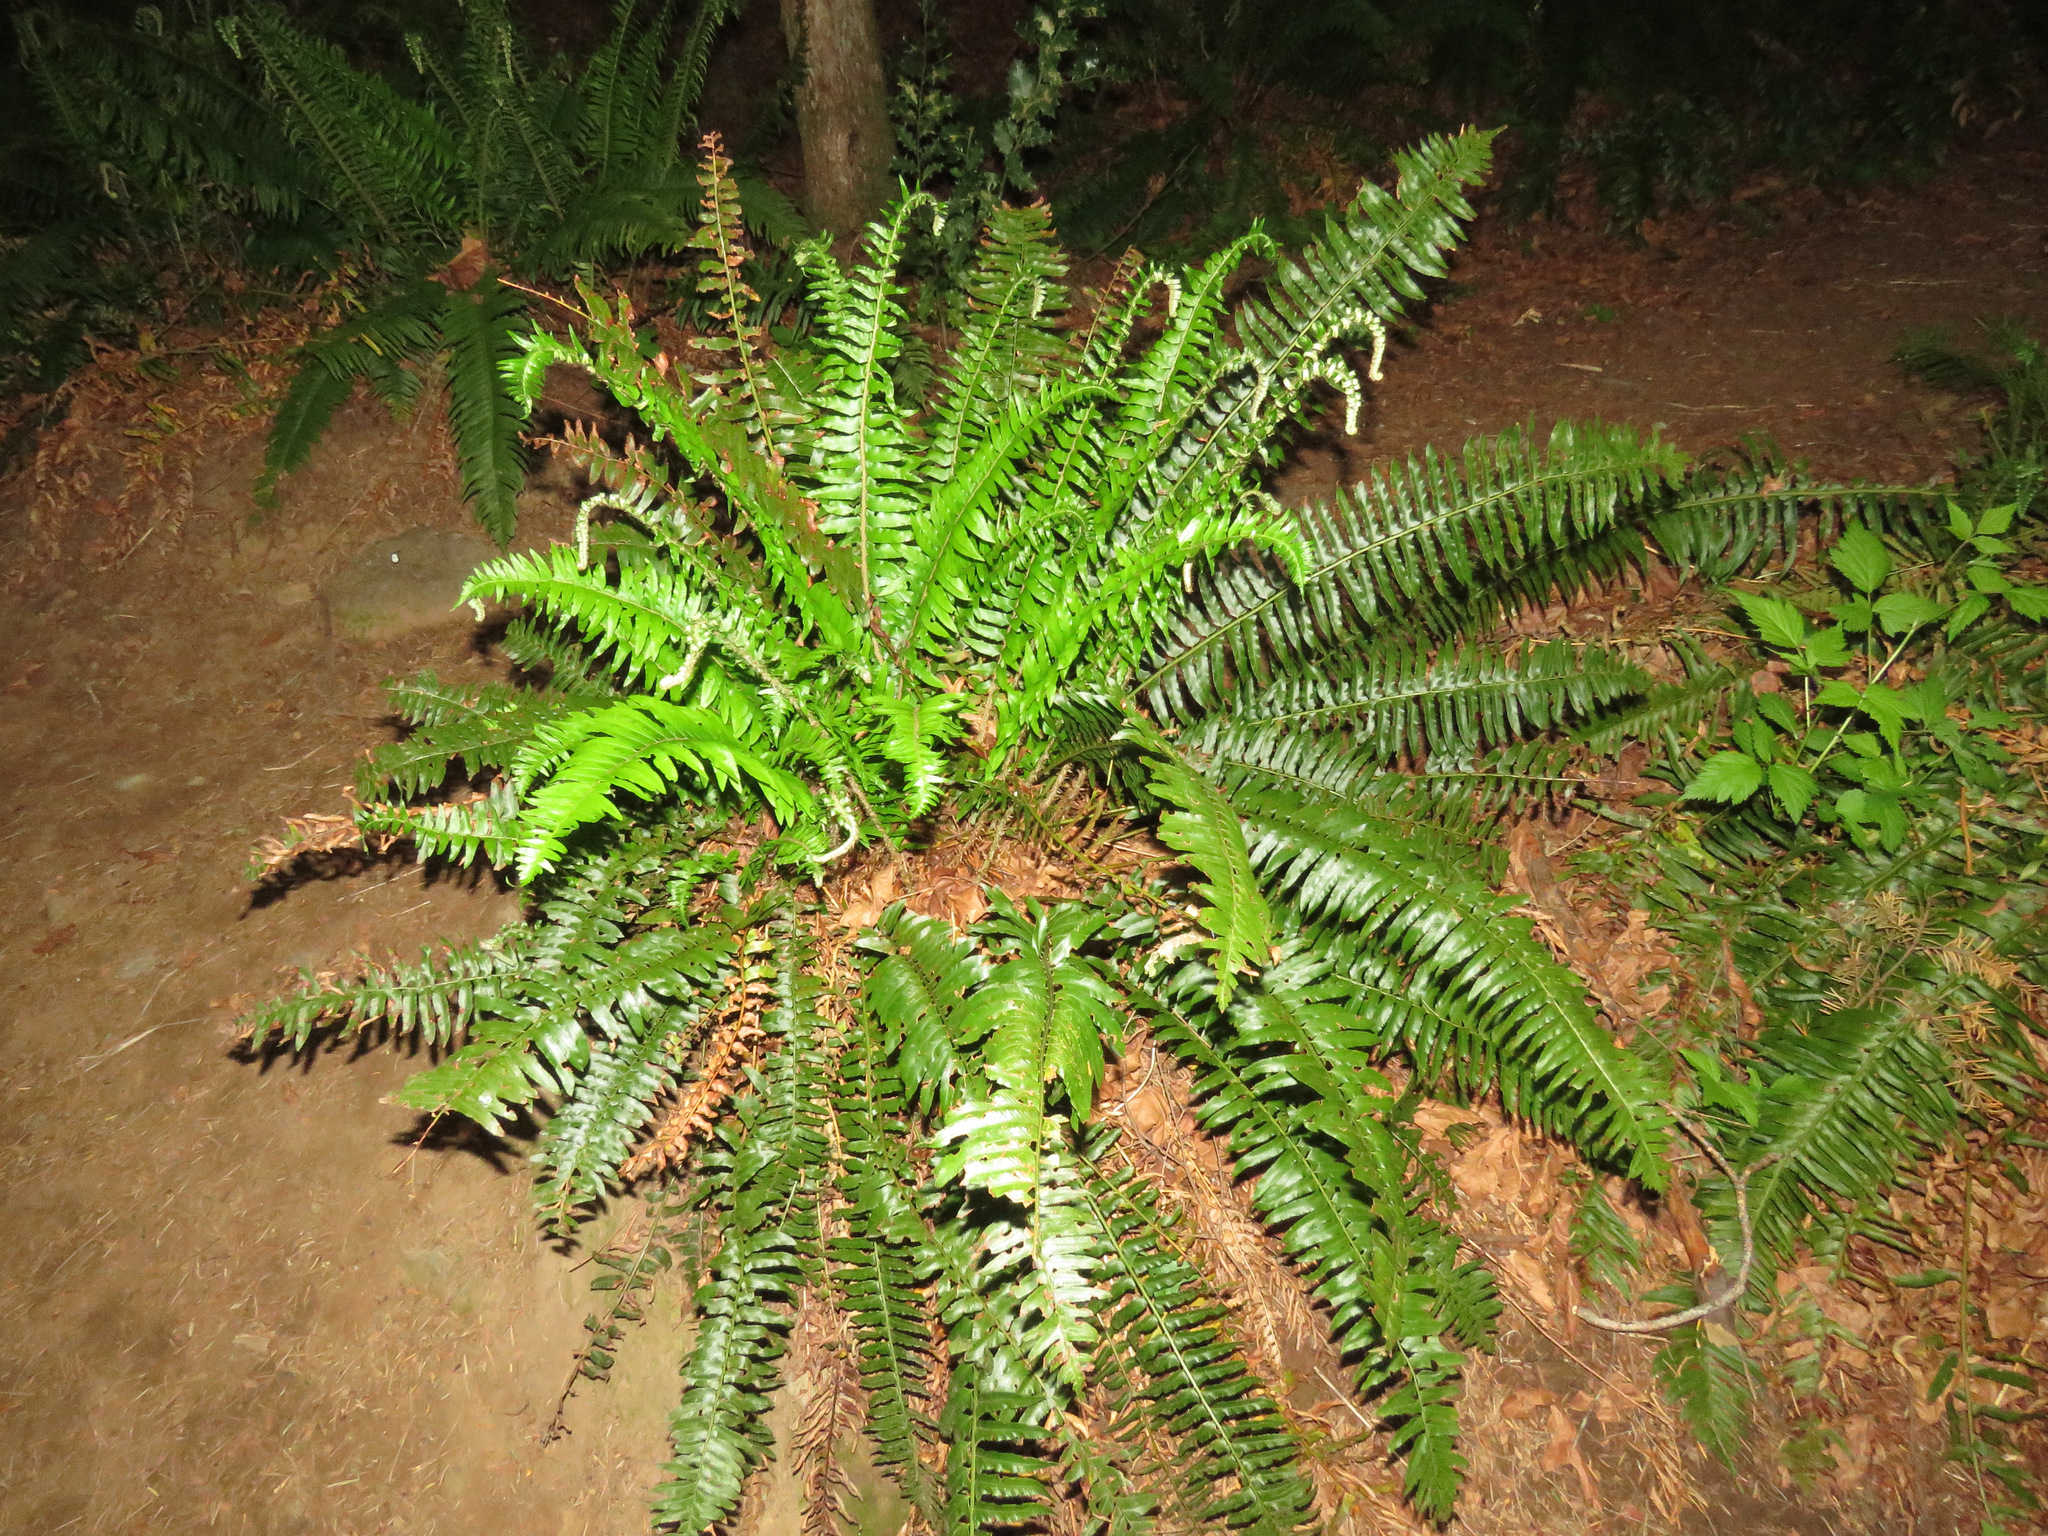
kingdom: Plantae
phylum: Tracheophyta
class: Polypodiopsida
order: Polypodiales
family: Dryopteridaceae
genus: Polystichum
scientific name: Polystichum munitum
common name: Western sword-fern
